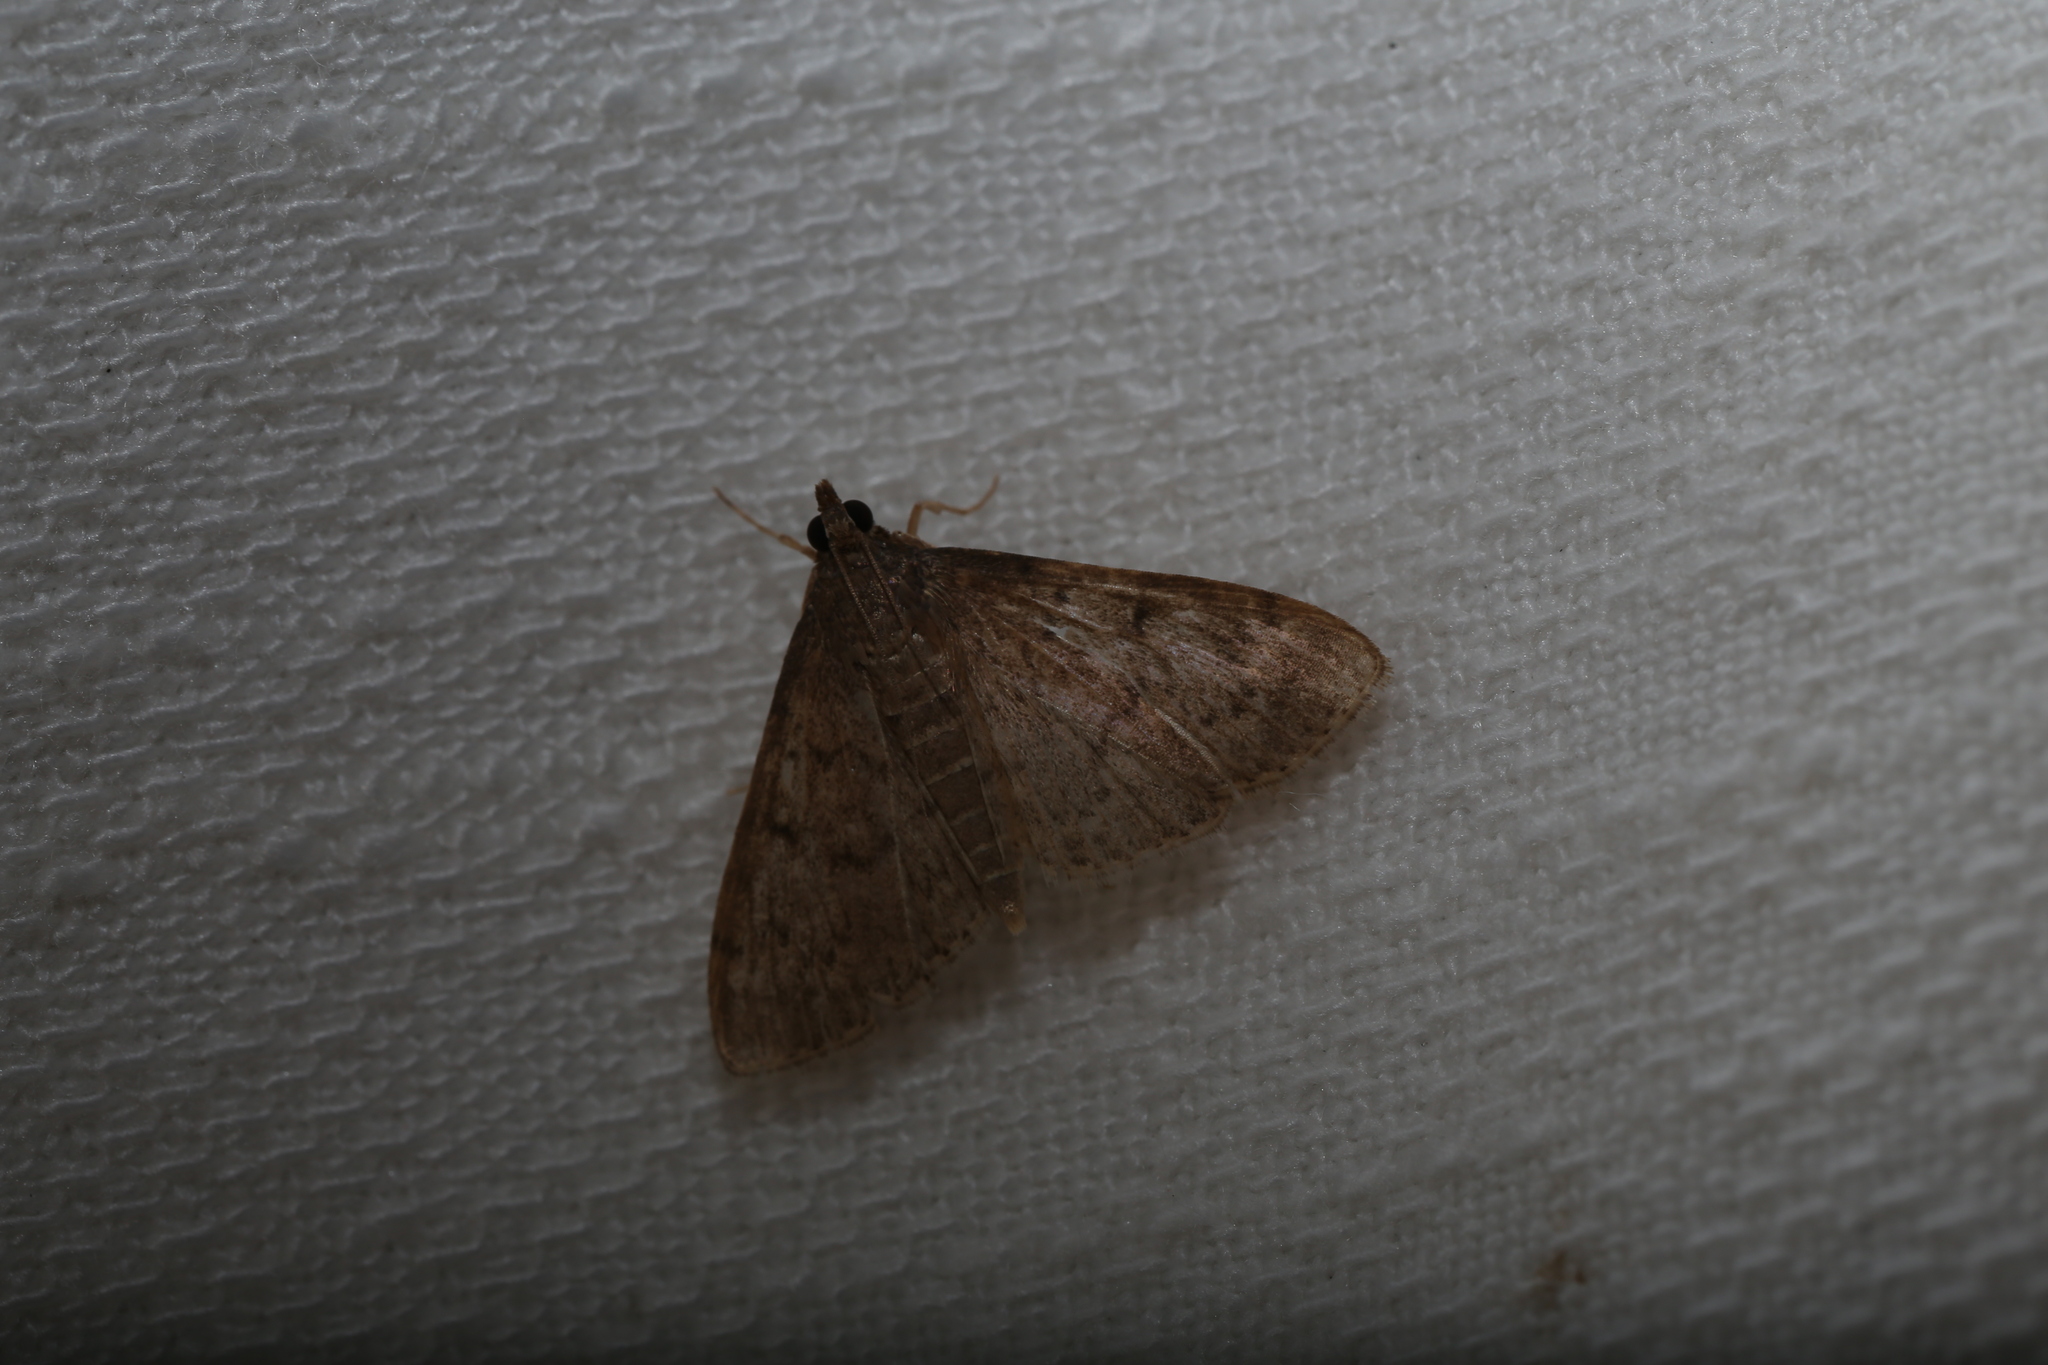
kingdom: Animalia
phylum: Arthropoda
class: Insecta
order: Lepidoptera
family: Crambidae
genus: Herpetogramma
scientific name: Herpetogramma licarsisalis
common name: Grass webworm
